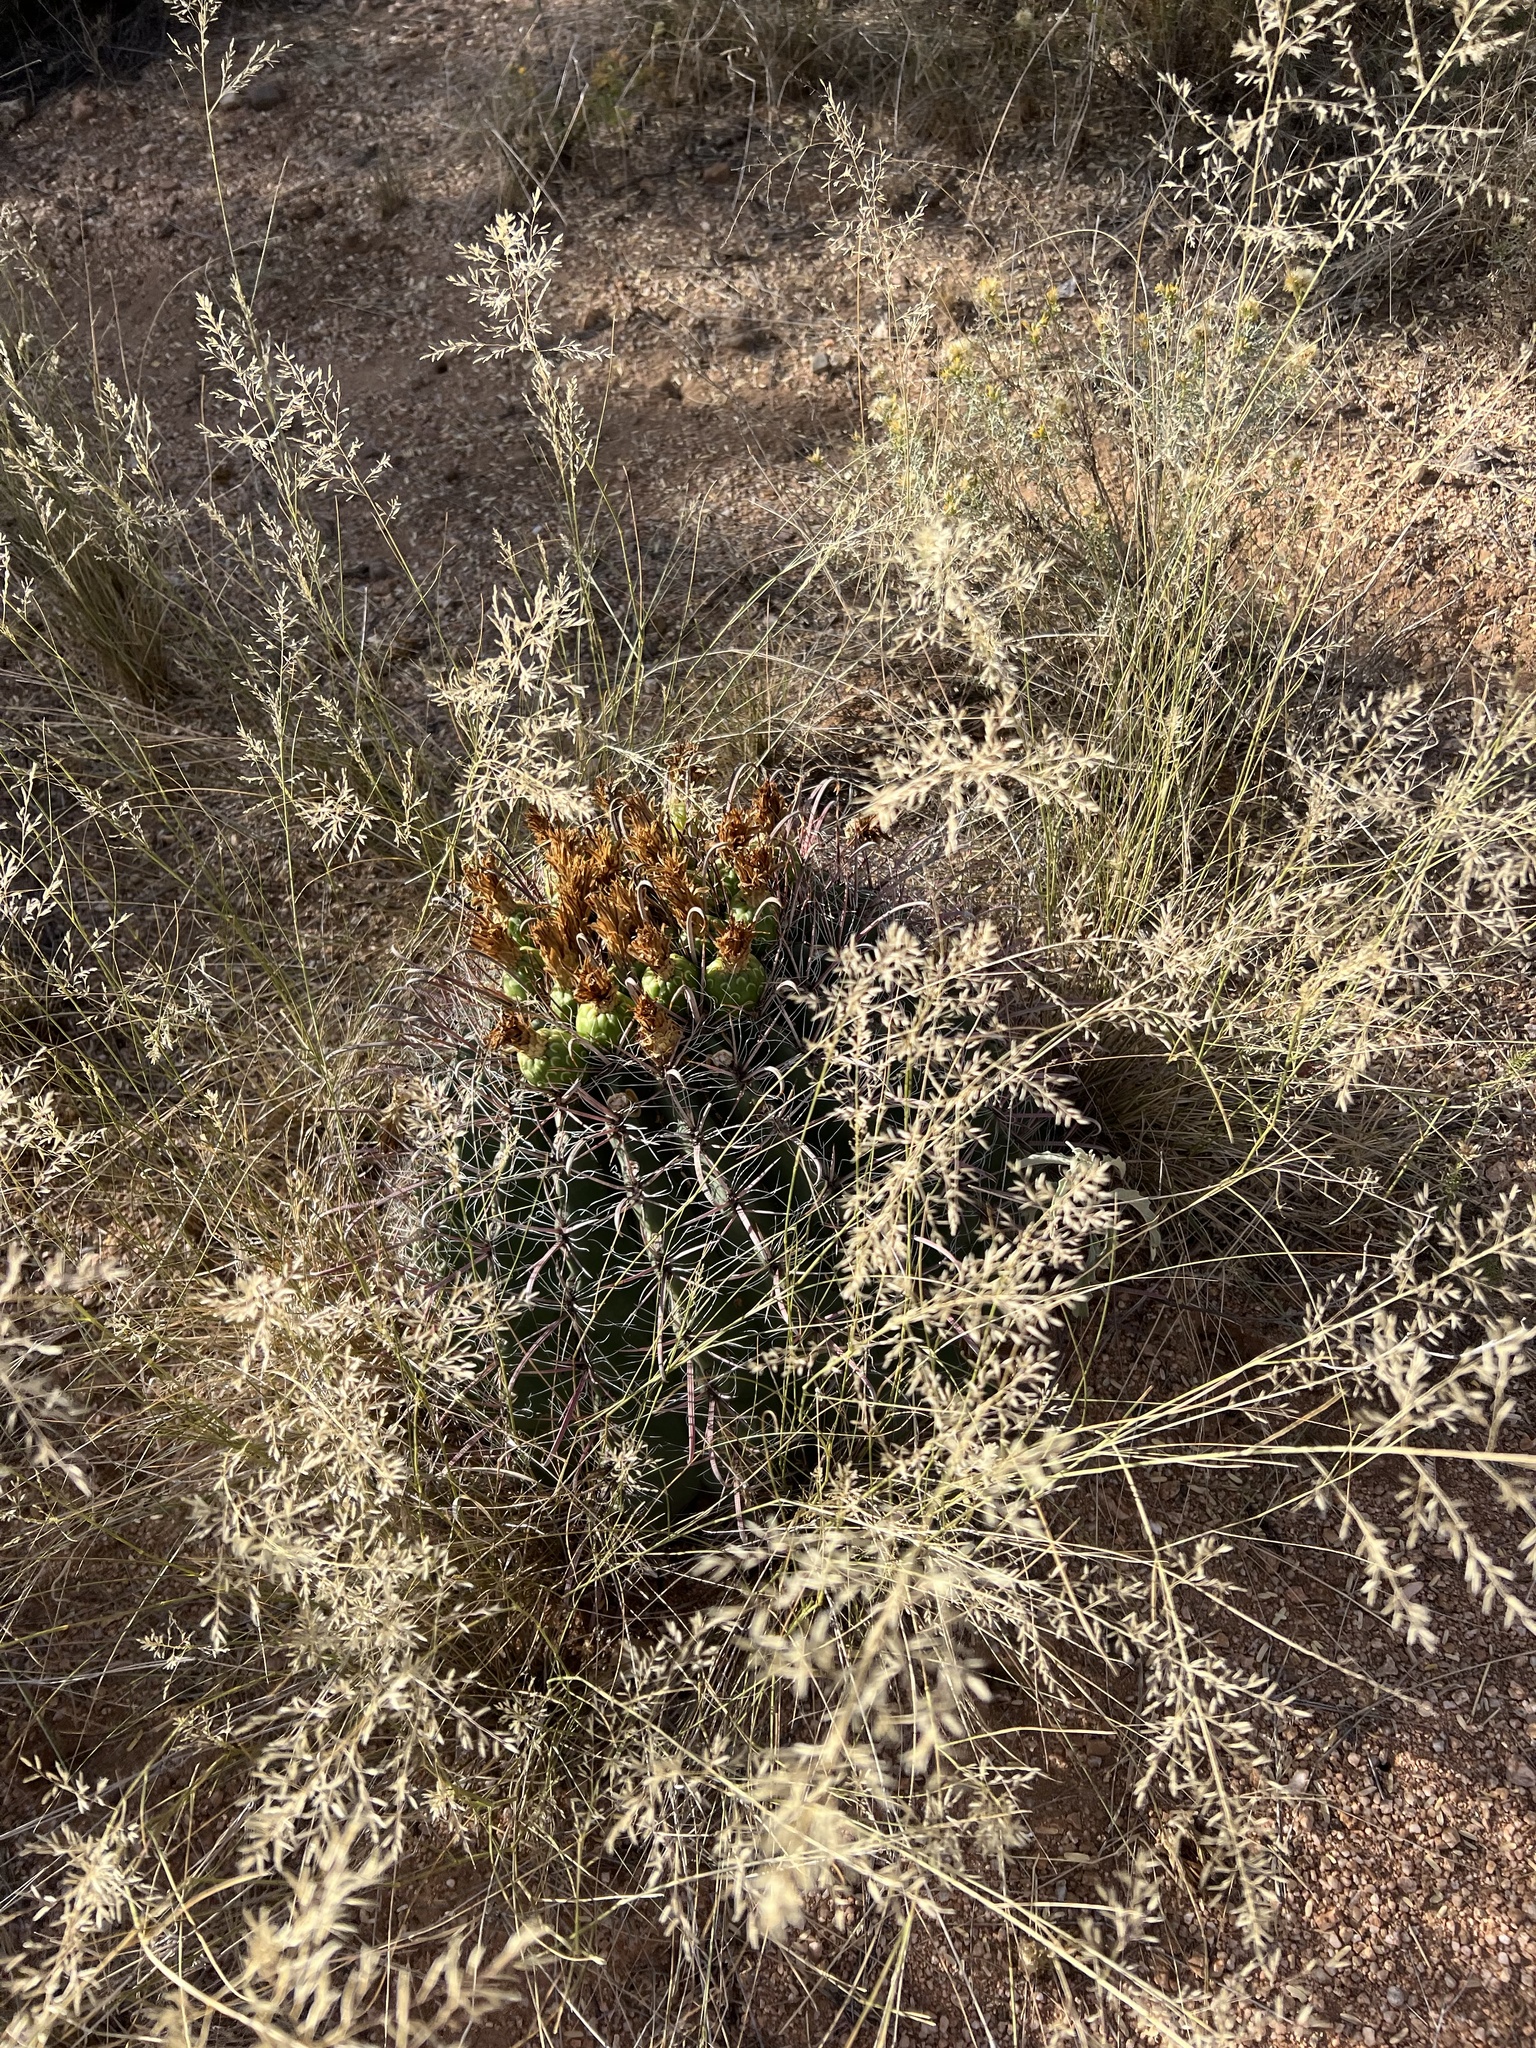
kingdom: Plantae
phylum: Tracheophyta
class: Magnoliopsida
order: Caryophyllales
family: Cactaceae
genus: Ferocactus
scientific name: Ferocactus wislizeni
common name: Candy barrel cactus
